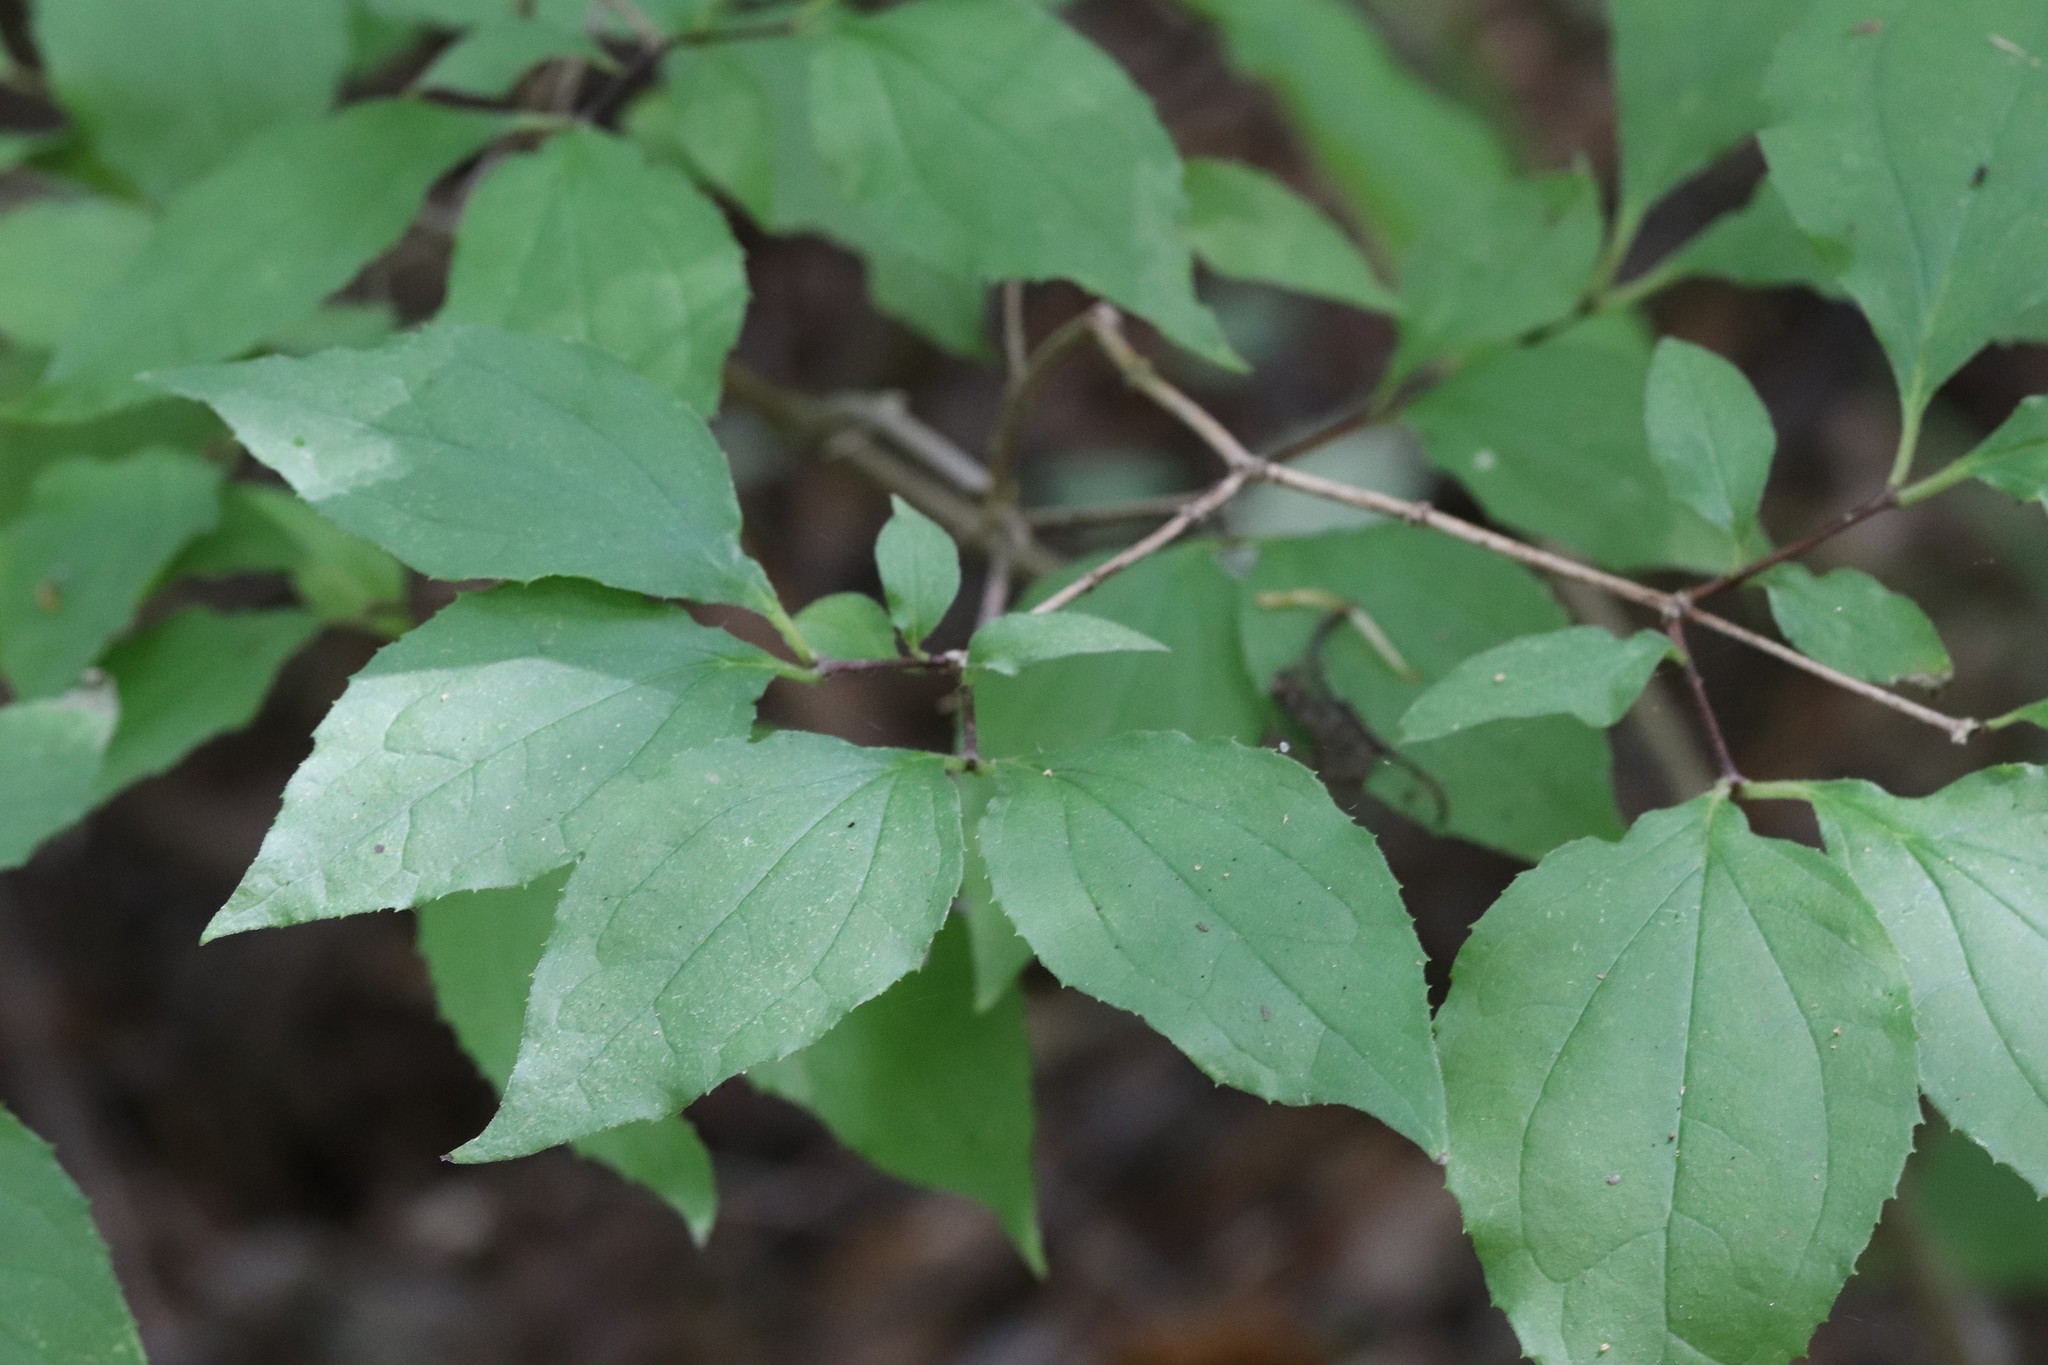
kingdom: Plantae
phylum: Tracheophyta
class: Magnoliopsida
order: Cornales
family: Hydrangeaceae
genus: Philadelphus
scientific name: Philadelphus tenuifolius
